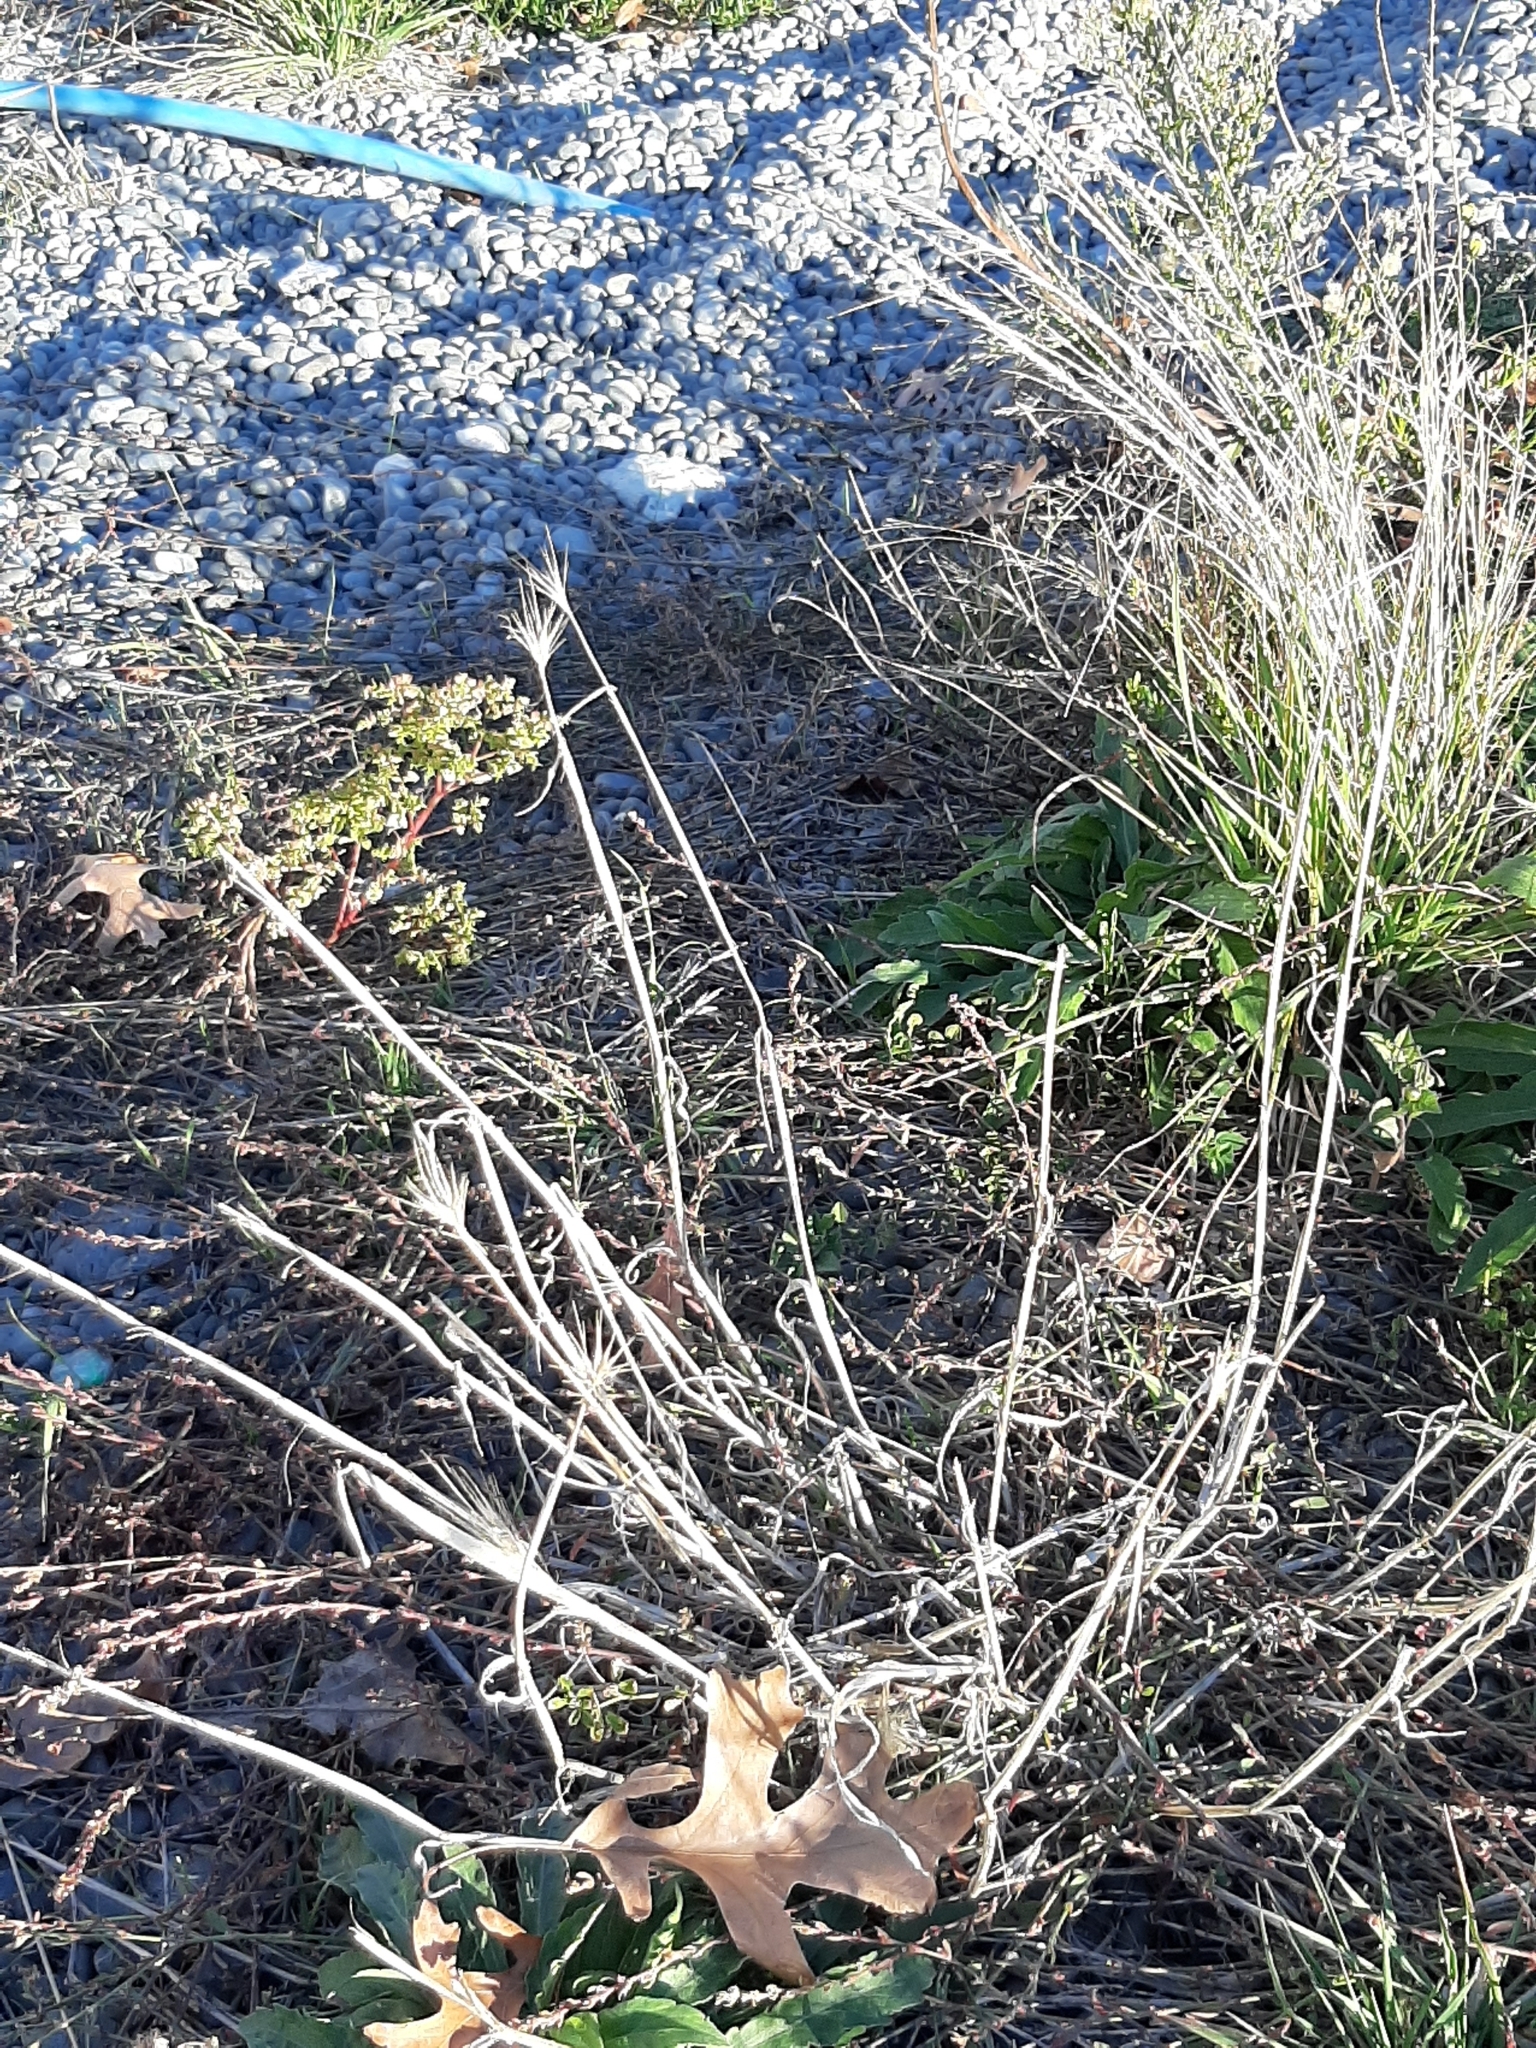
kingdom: Plantae
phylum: Tracheophyta
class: Liliopsida
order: Poales
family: Poaceae
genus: Hordeum
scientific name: Hordeum murinum
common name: Wall barley
